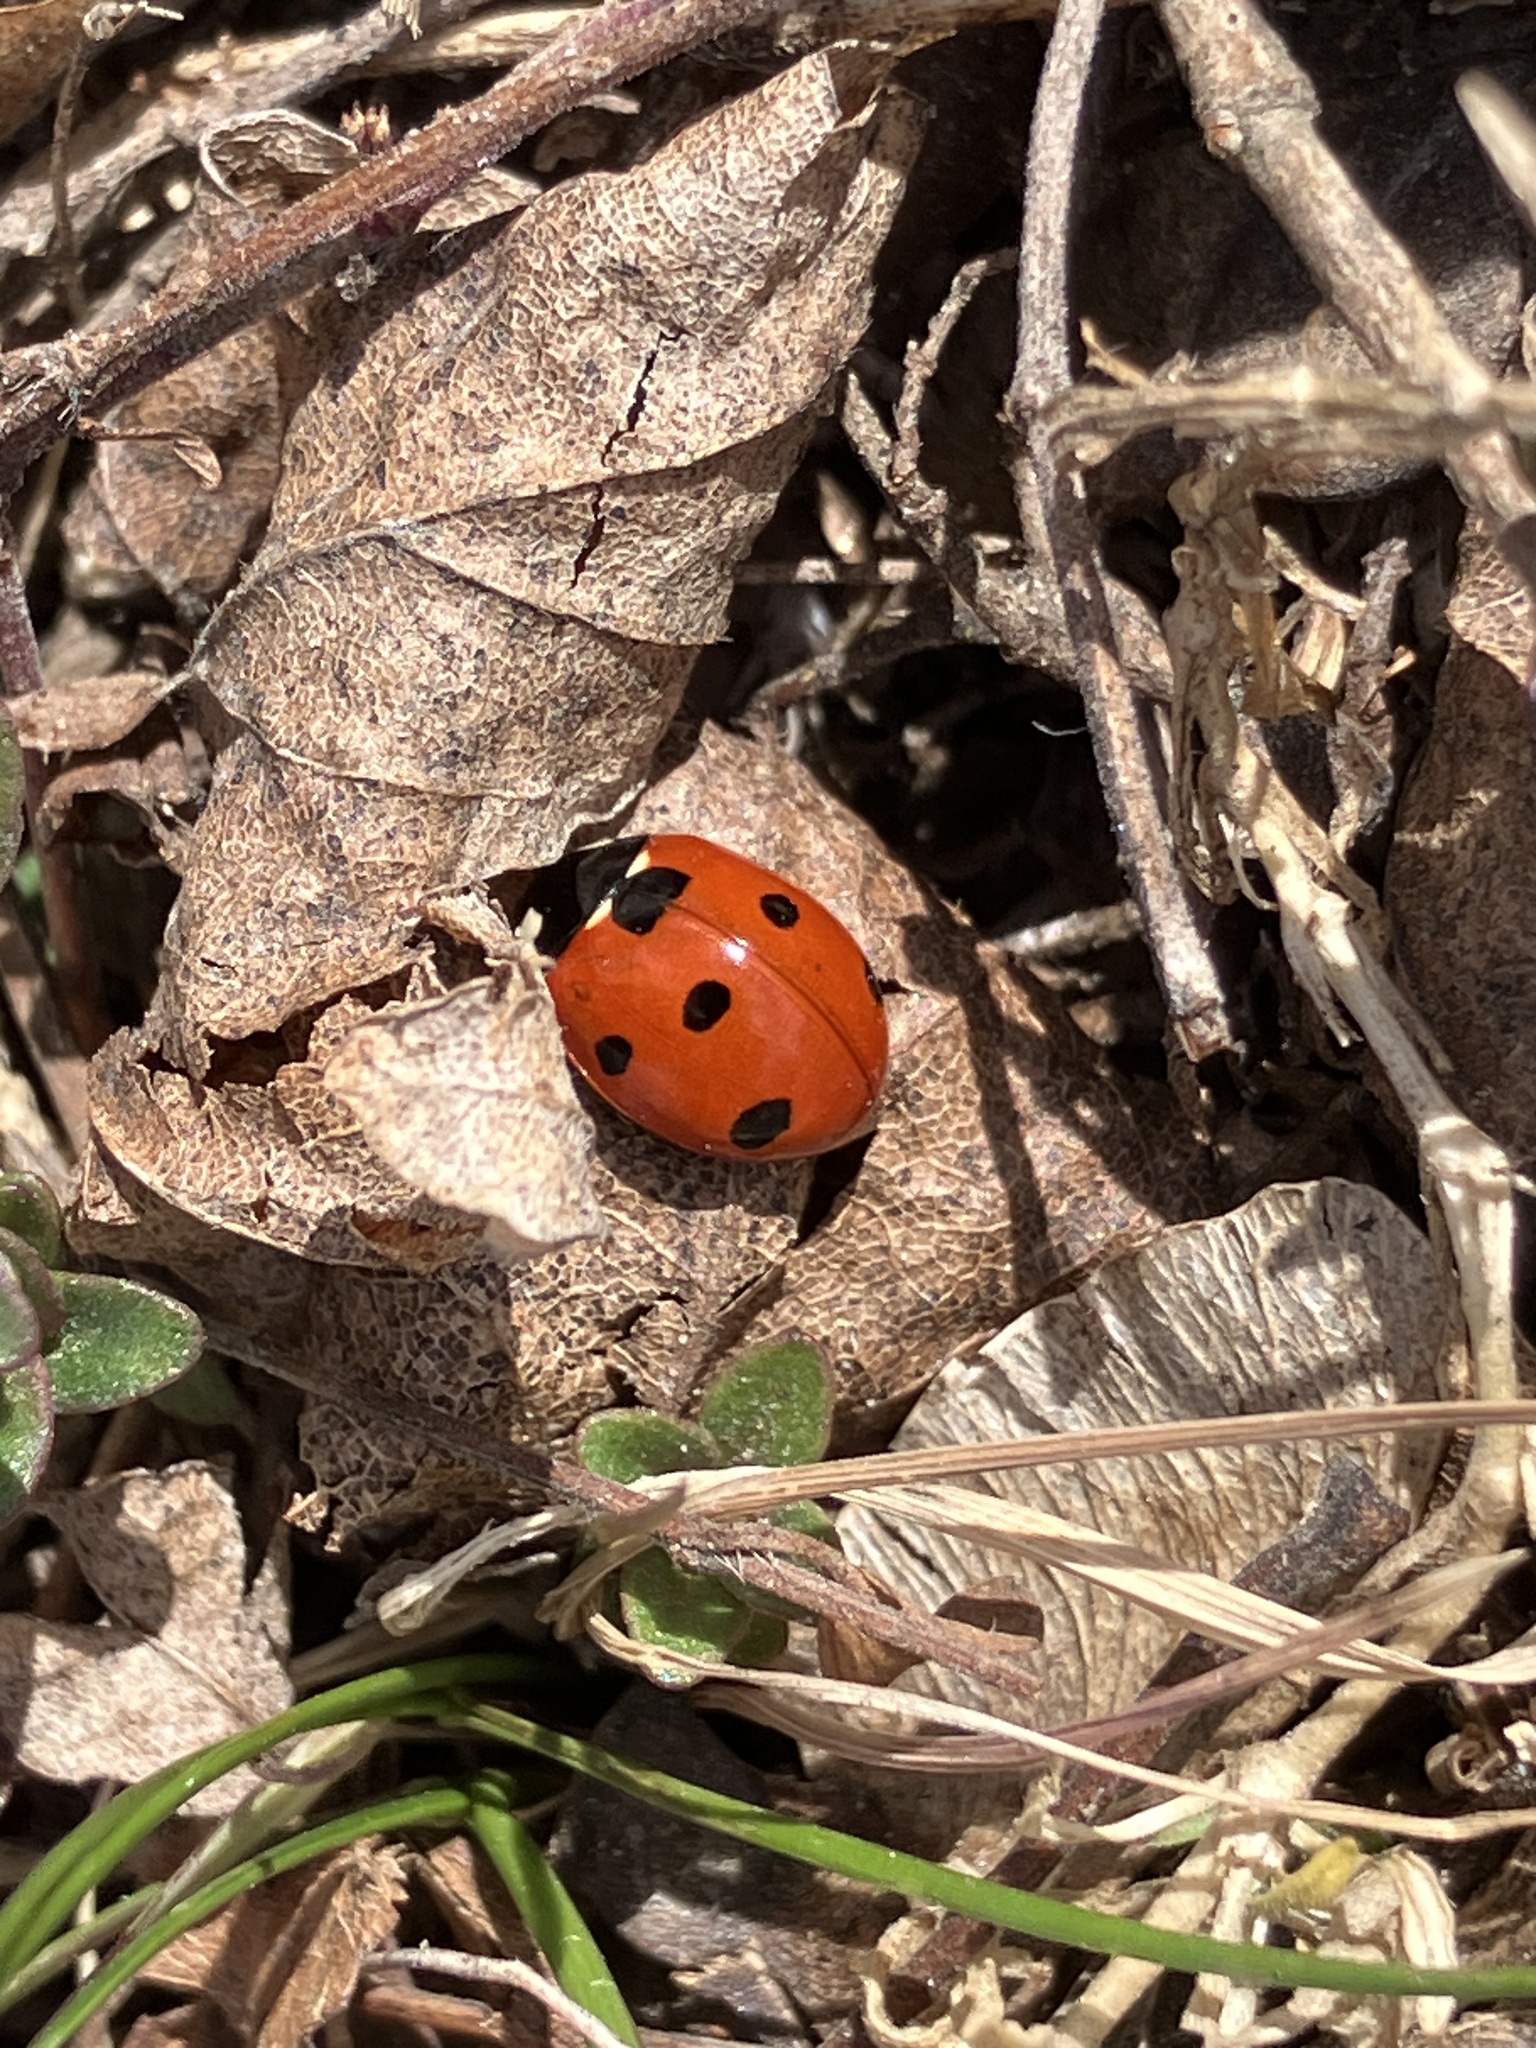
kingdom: Animalia
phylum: Arthropoda
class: Insecta
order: Coleoptera
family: Coccinellidae
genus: Coccinella
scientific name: Coccinella septempunctata
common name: Sevenspotted lady beetle
